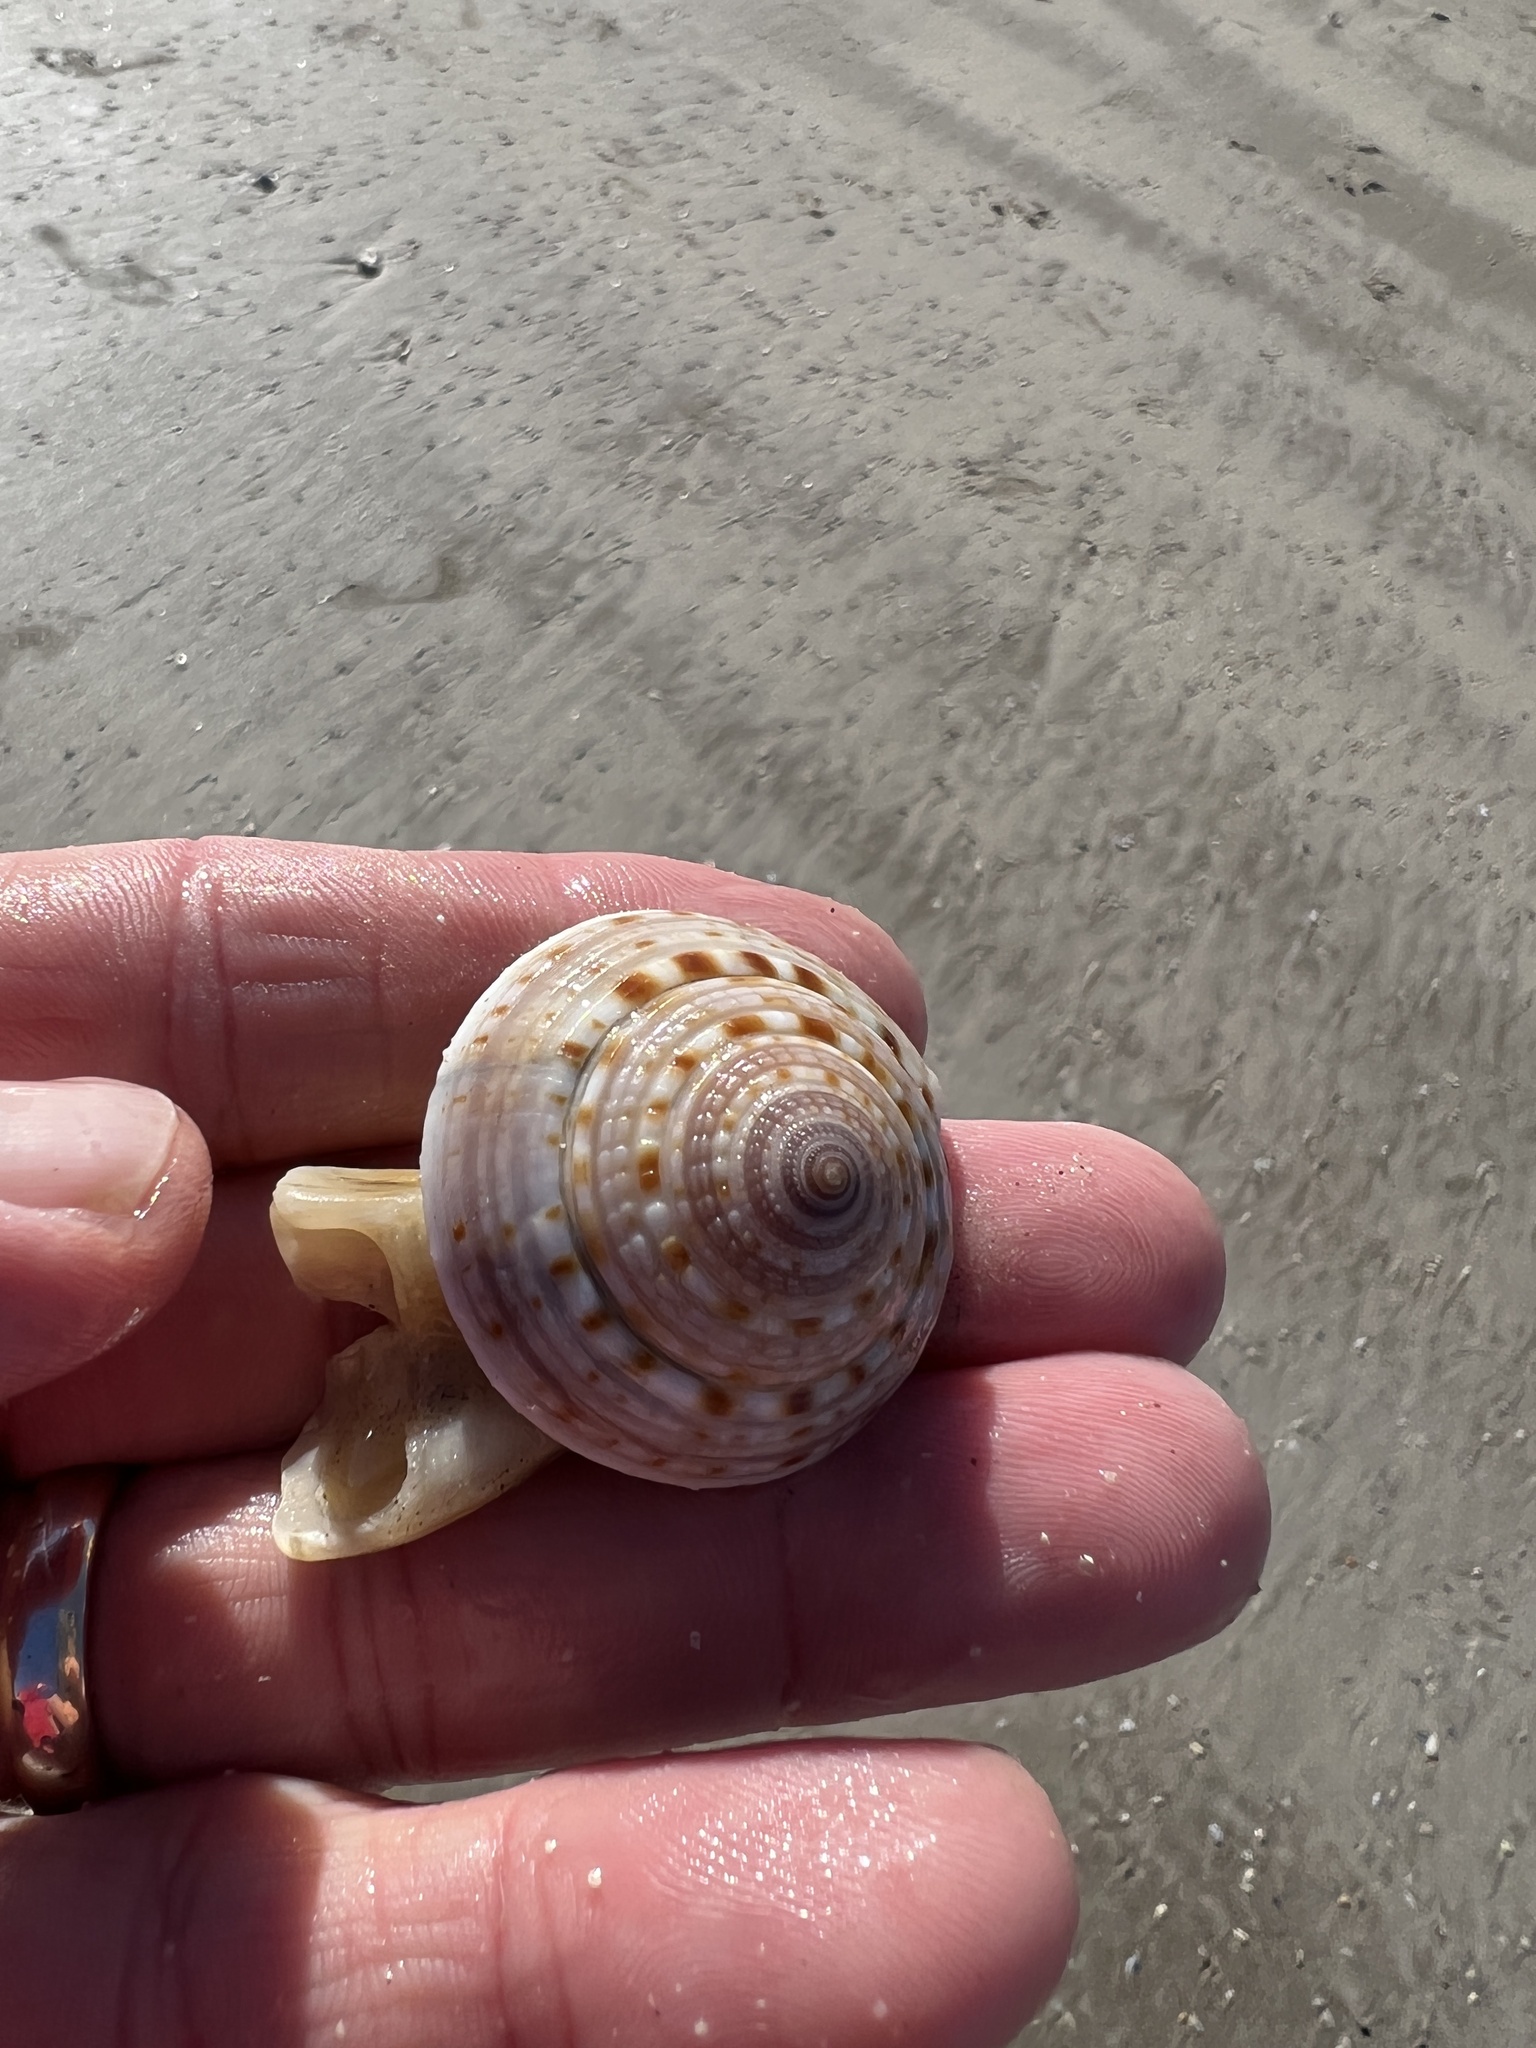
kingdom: Animalia
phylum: Mollusca
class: Gastropoda
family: Architectonicidae
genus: Architectonica
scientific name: Architectonica nobilis
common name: Common sundial
